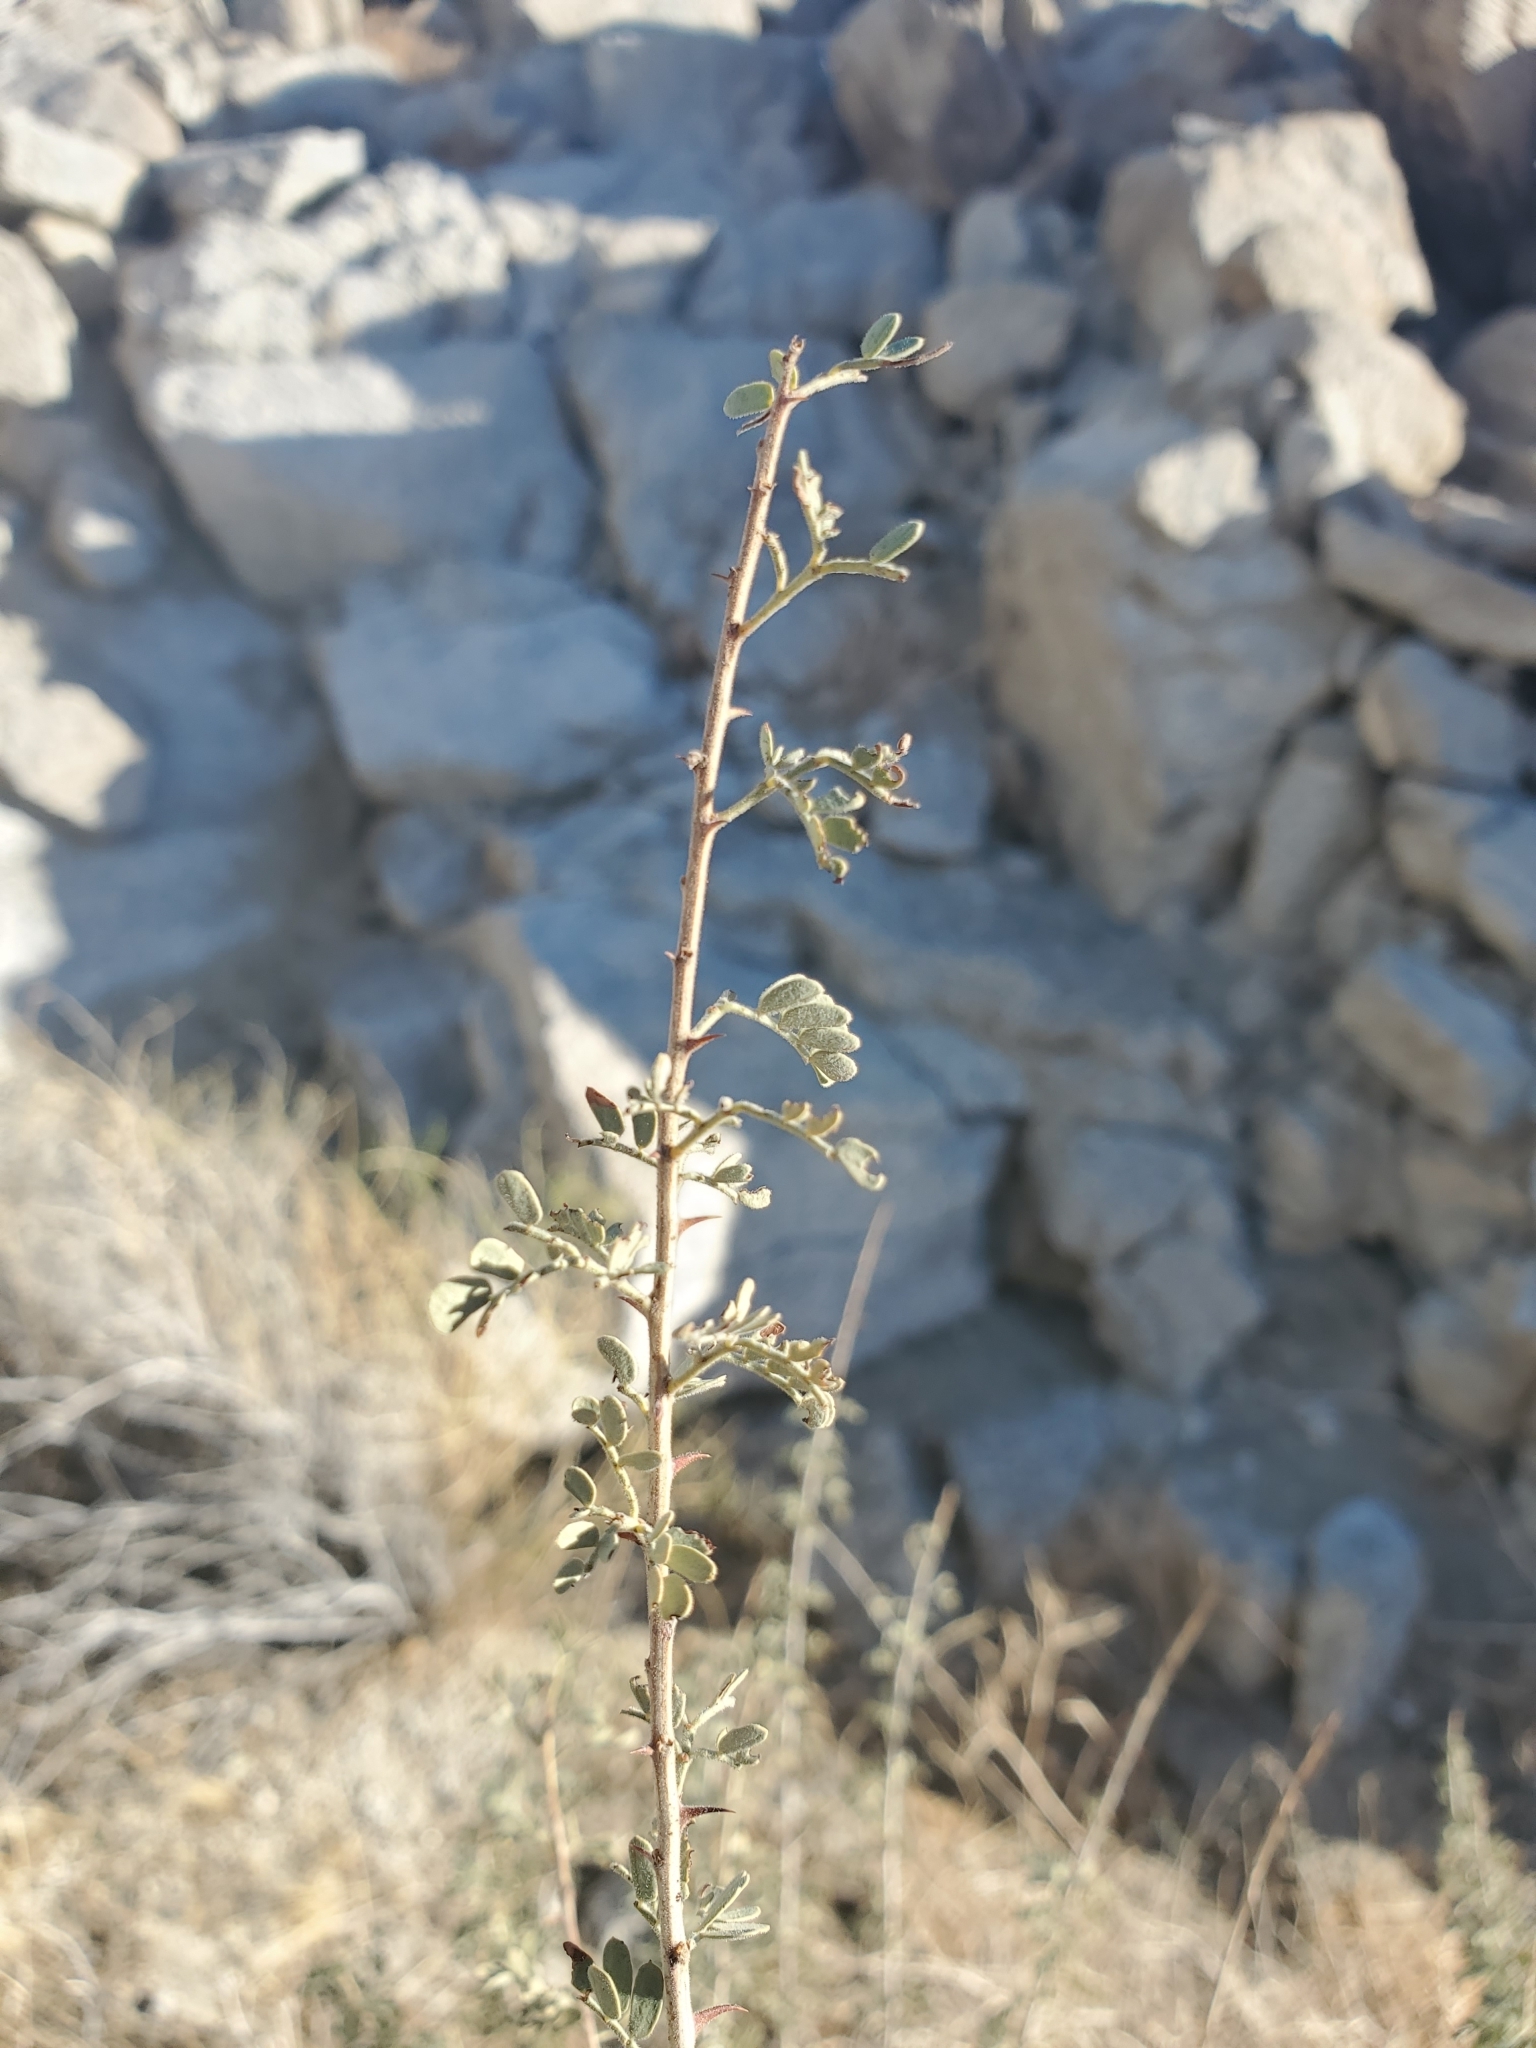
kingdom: Plantae
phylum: Tracheophyta
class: Magnoliopsida
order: Fabales
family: Fabaceae
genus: Senegalia
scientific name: Senegalia greggii
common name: Texas-mimosa
